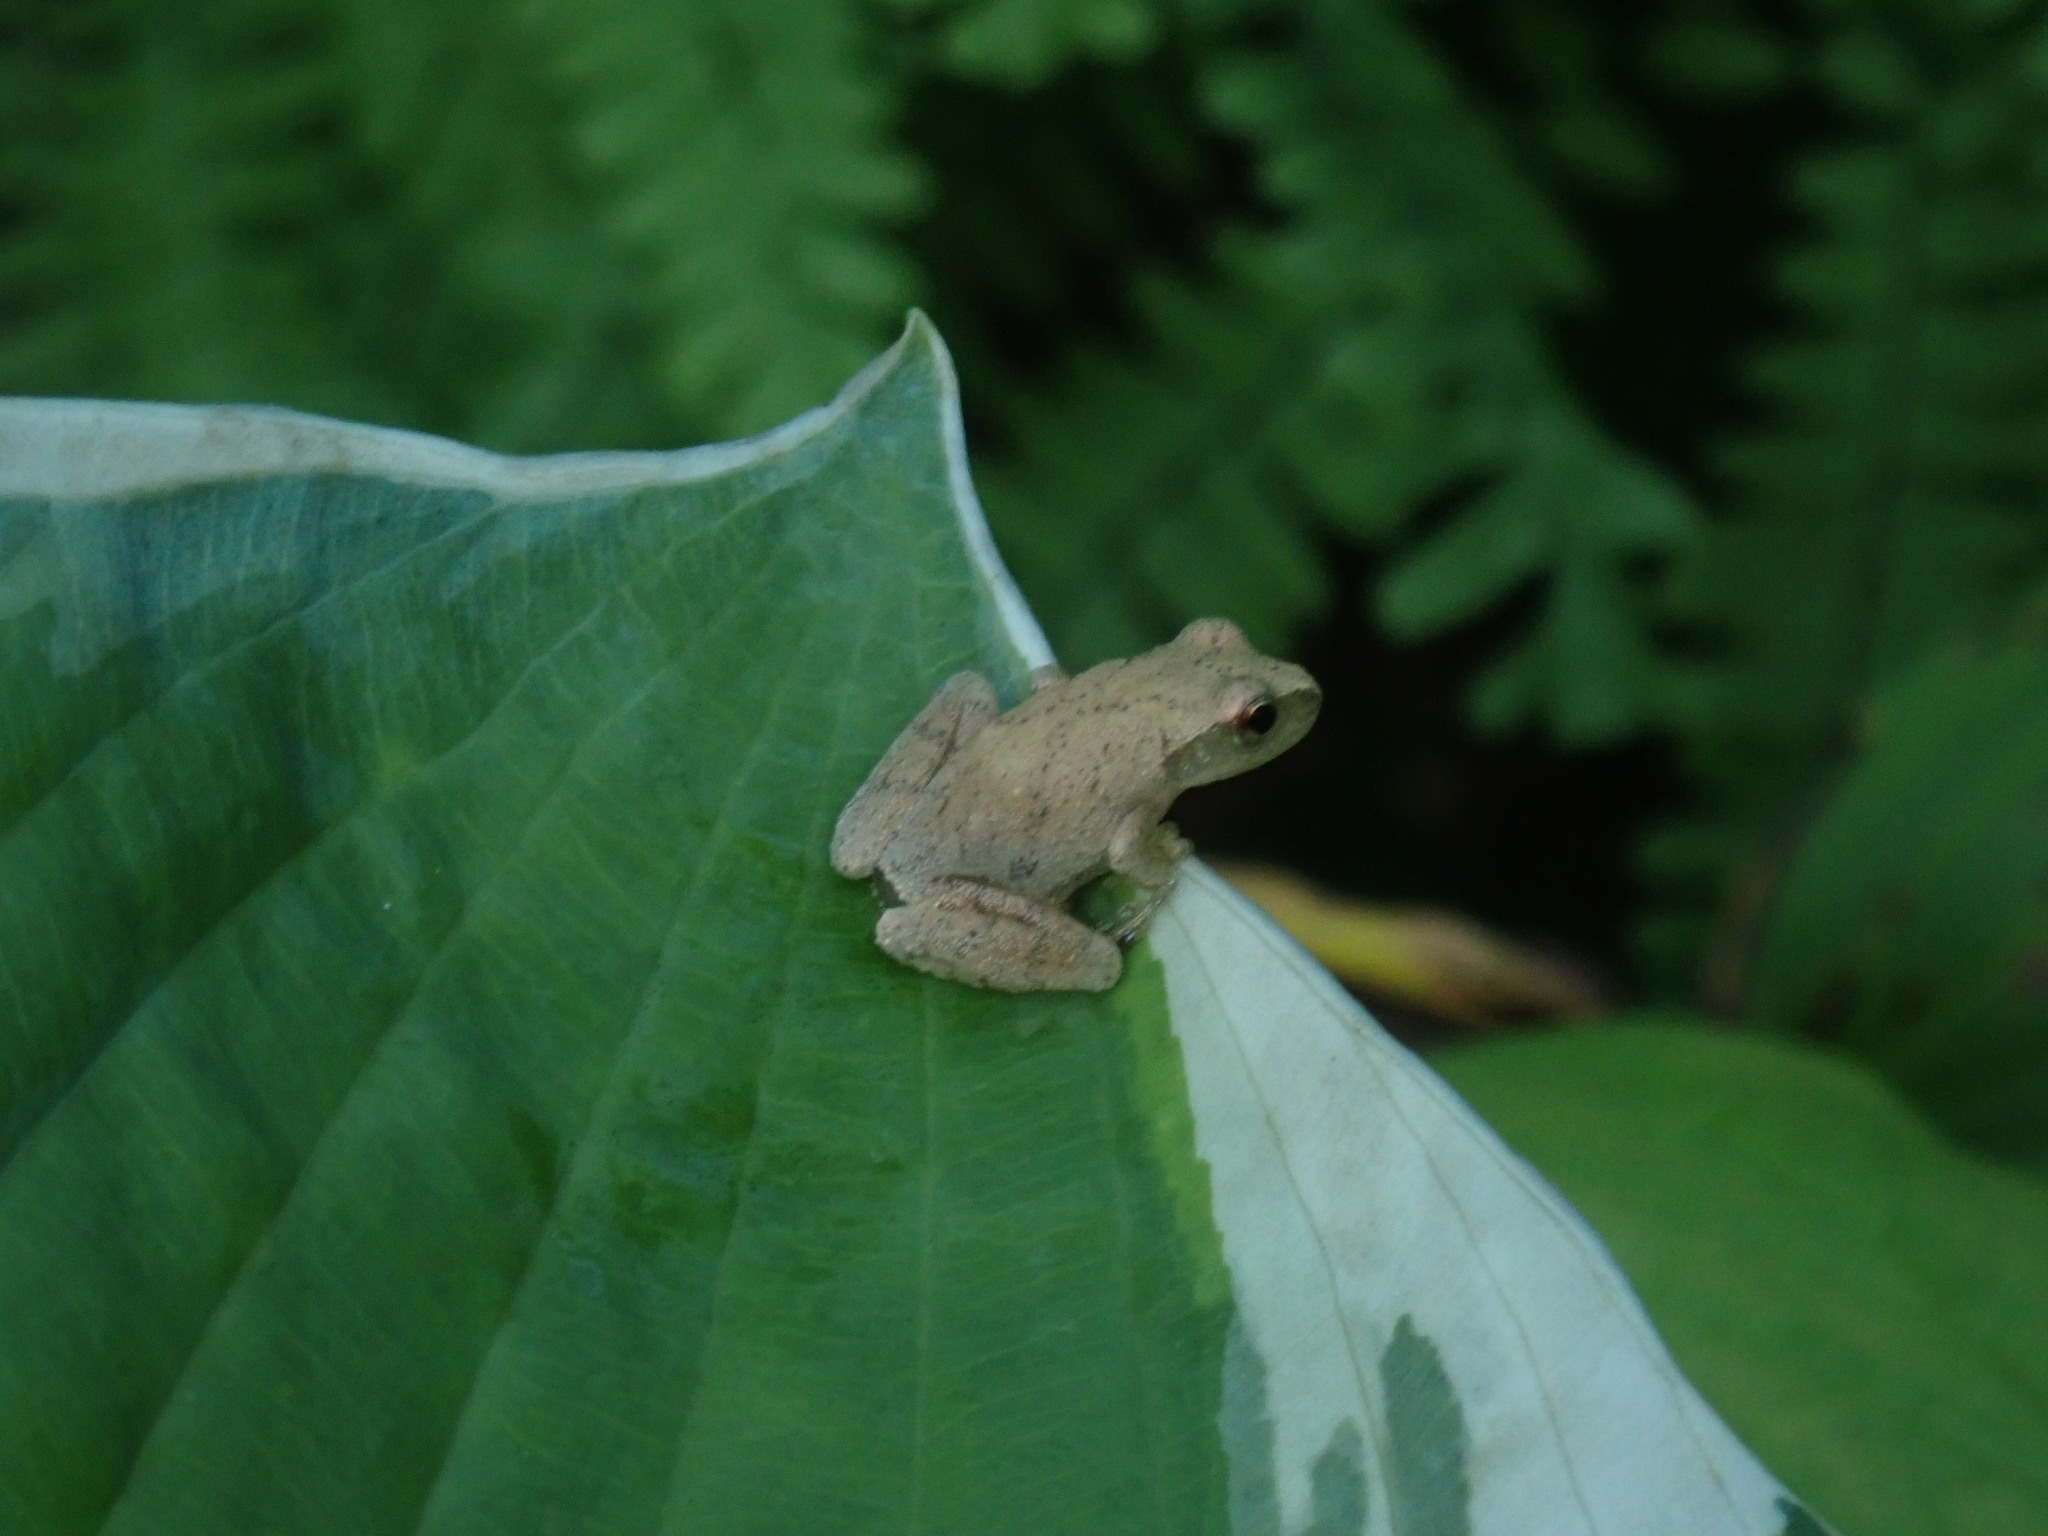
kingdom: Animalia
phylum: Chordata
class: Amphibia
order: Anura
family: Hylidae
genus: Pseudacris
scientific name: Pseudacris crucifer
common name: Spring peeper
